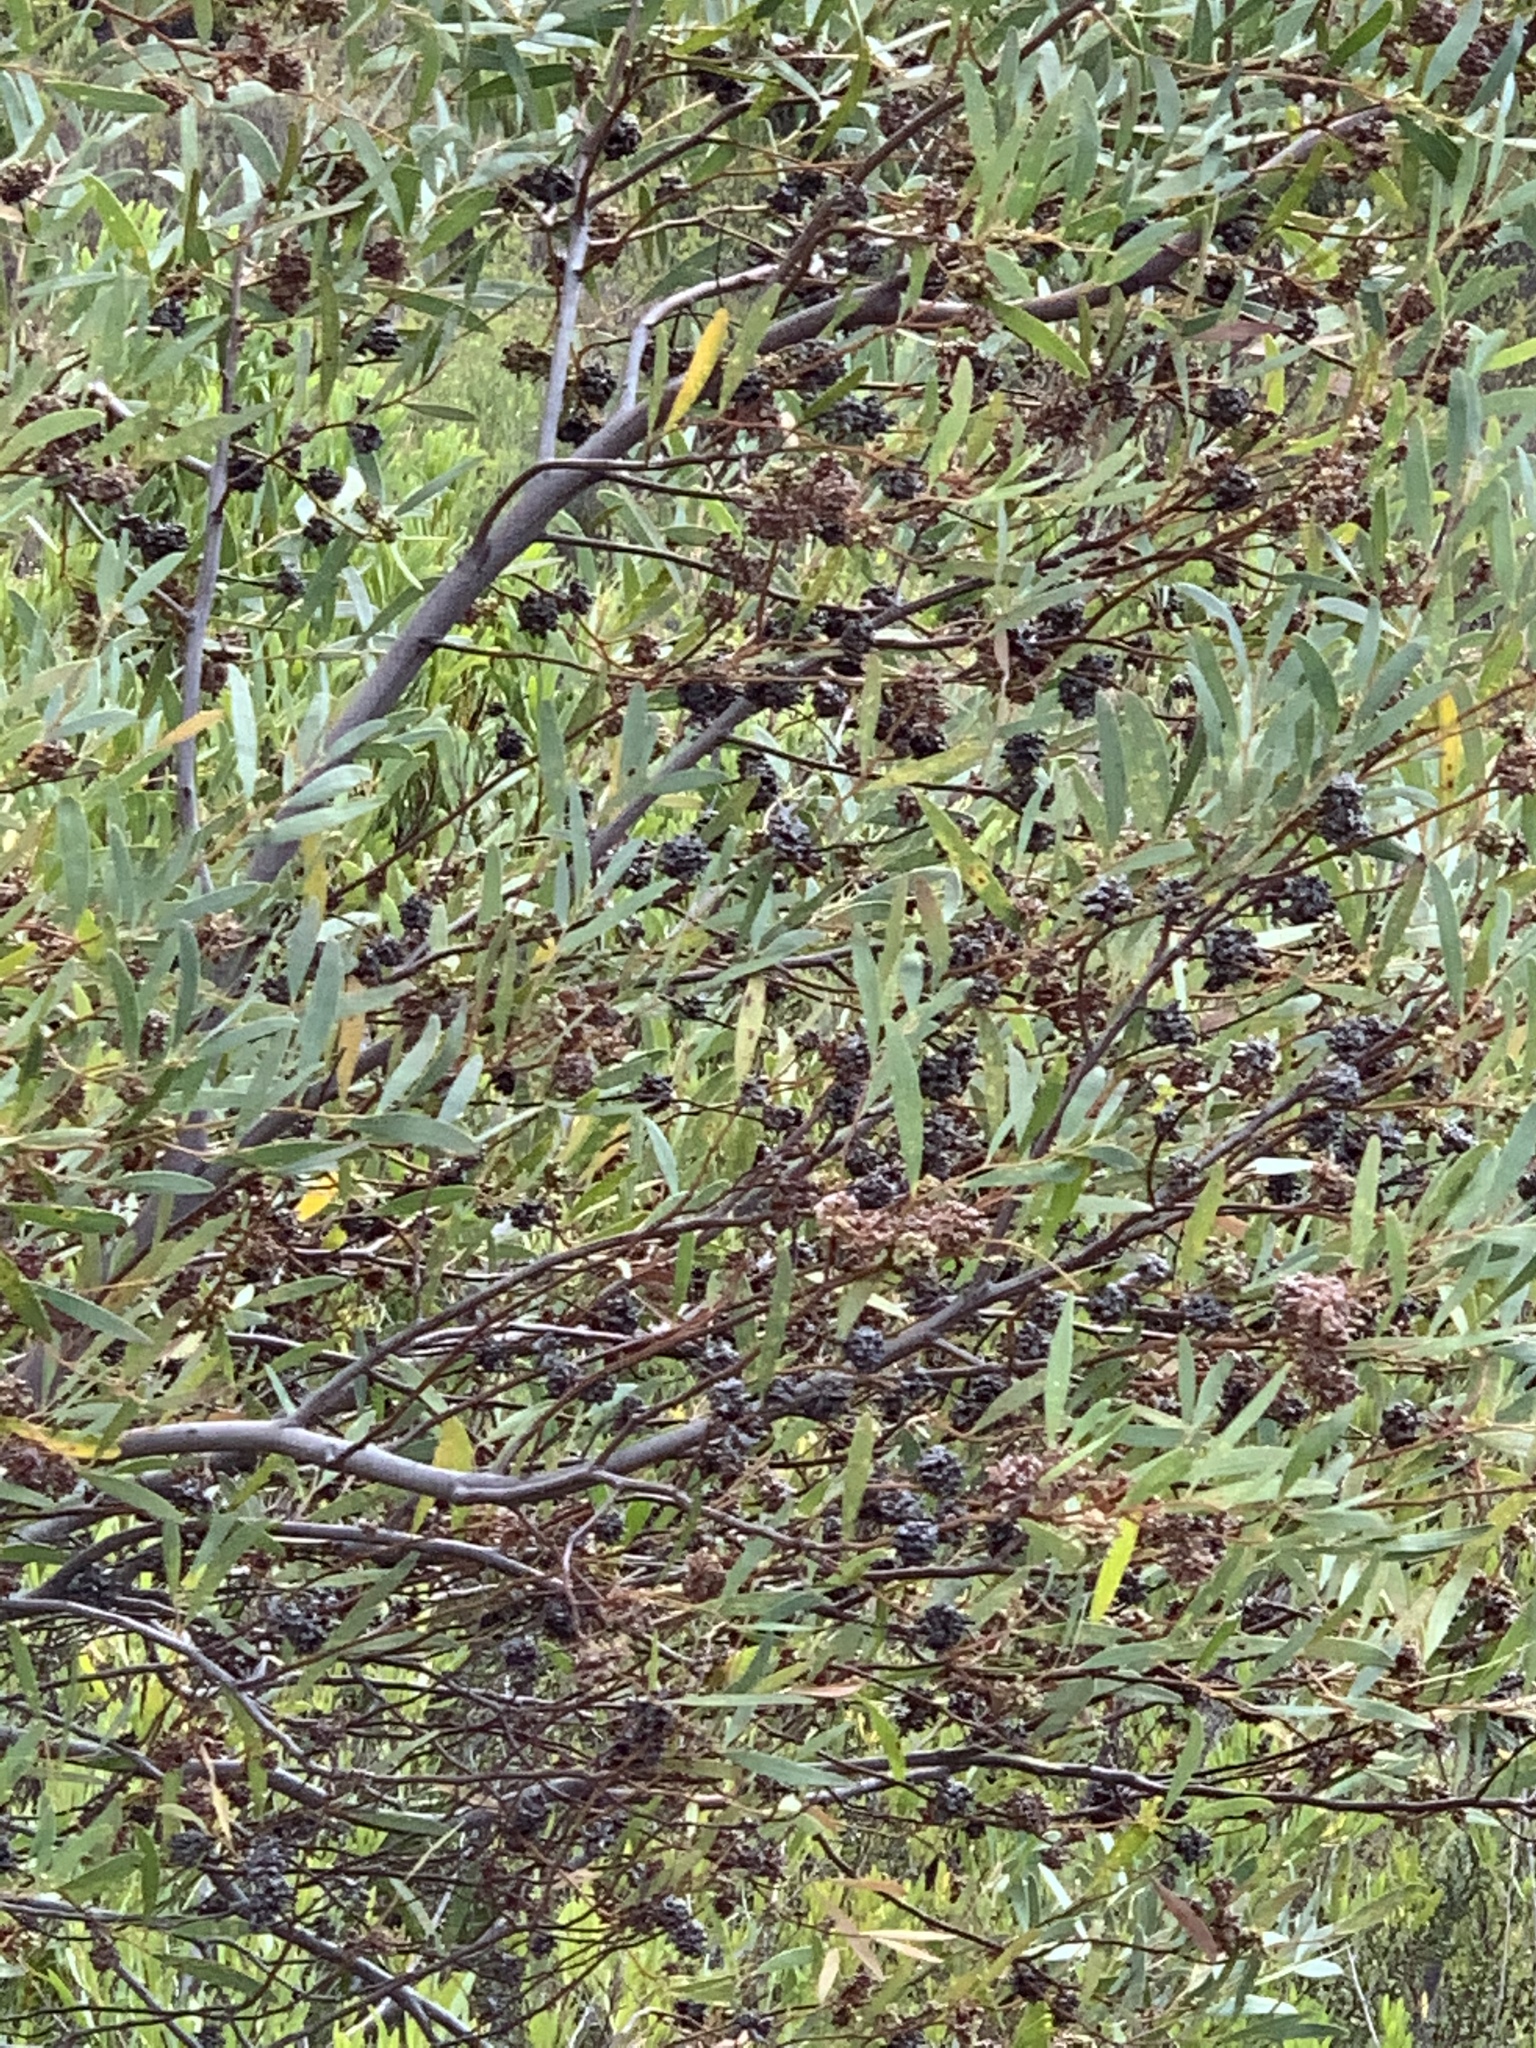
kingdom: Plantae
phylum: Tracheophyta
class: Magnoliopsida
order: Fabales
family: Fabaceae
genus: Acacia
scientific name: Acacia cyclops
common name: Coastal wattle
